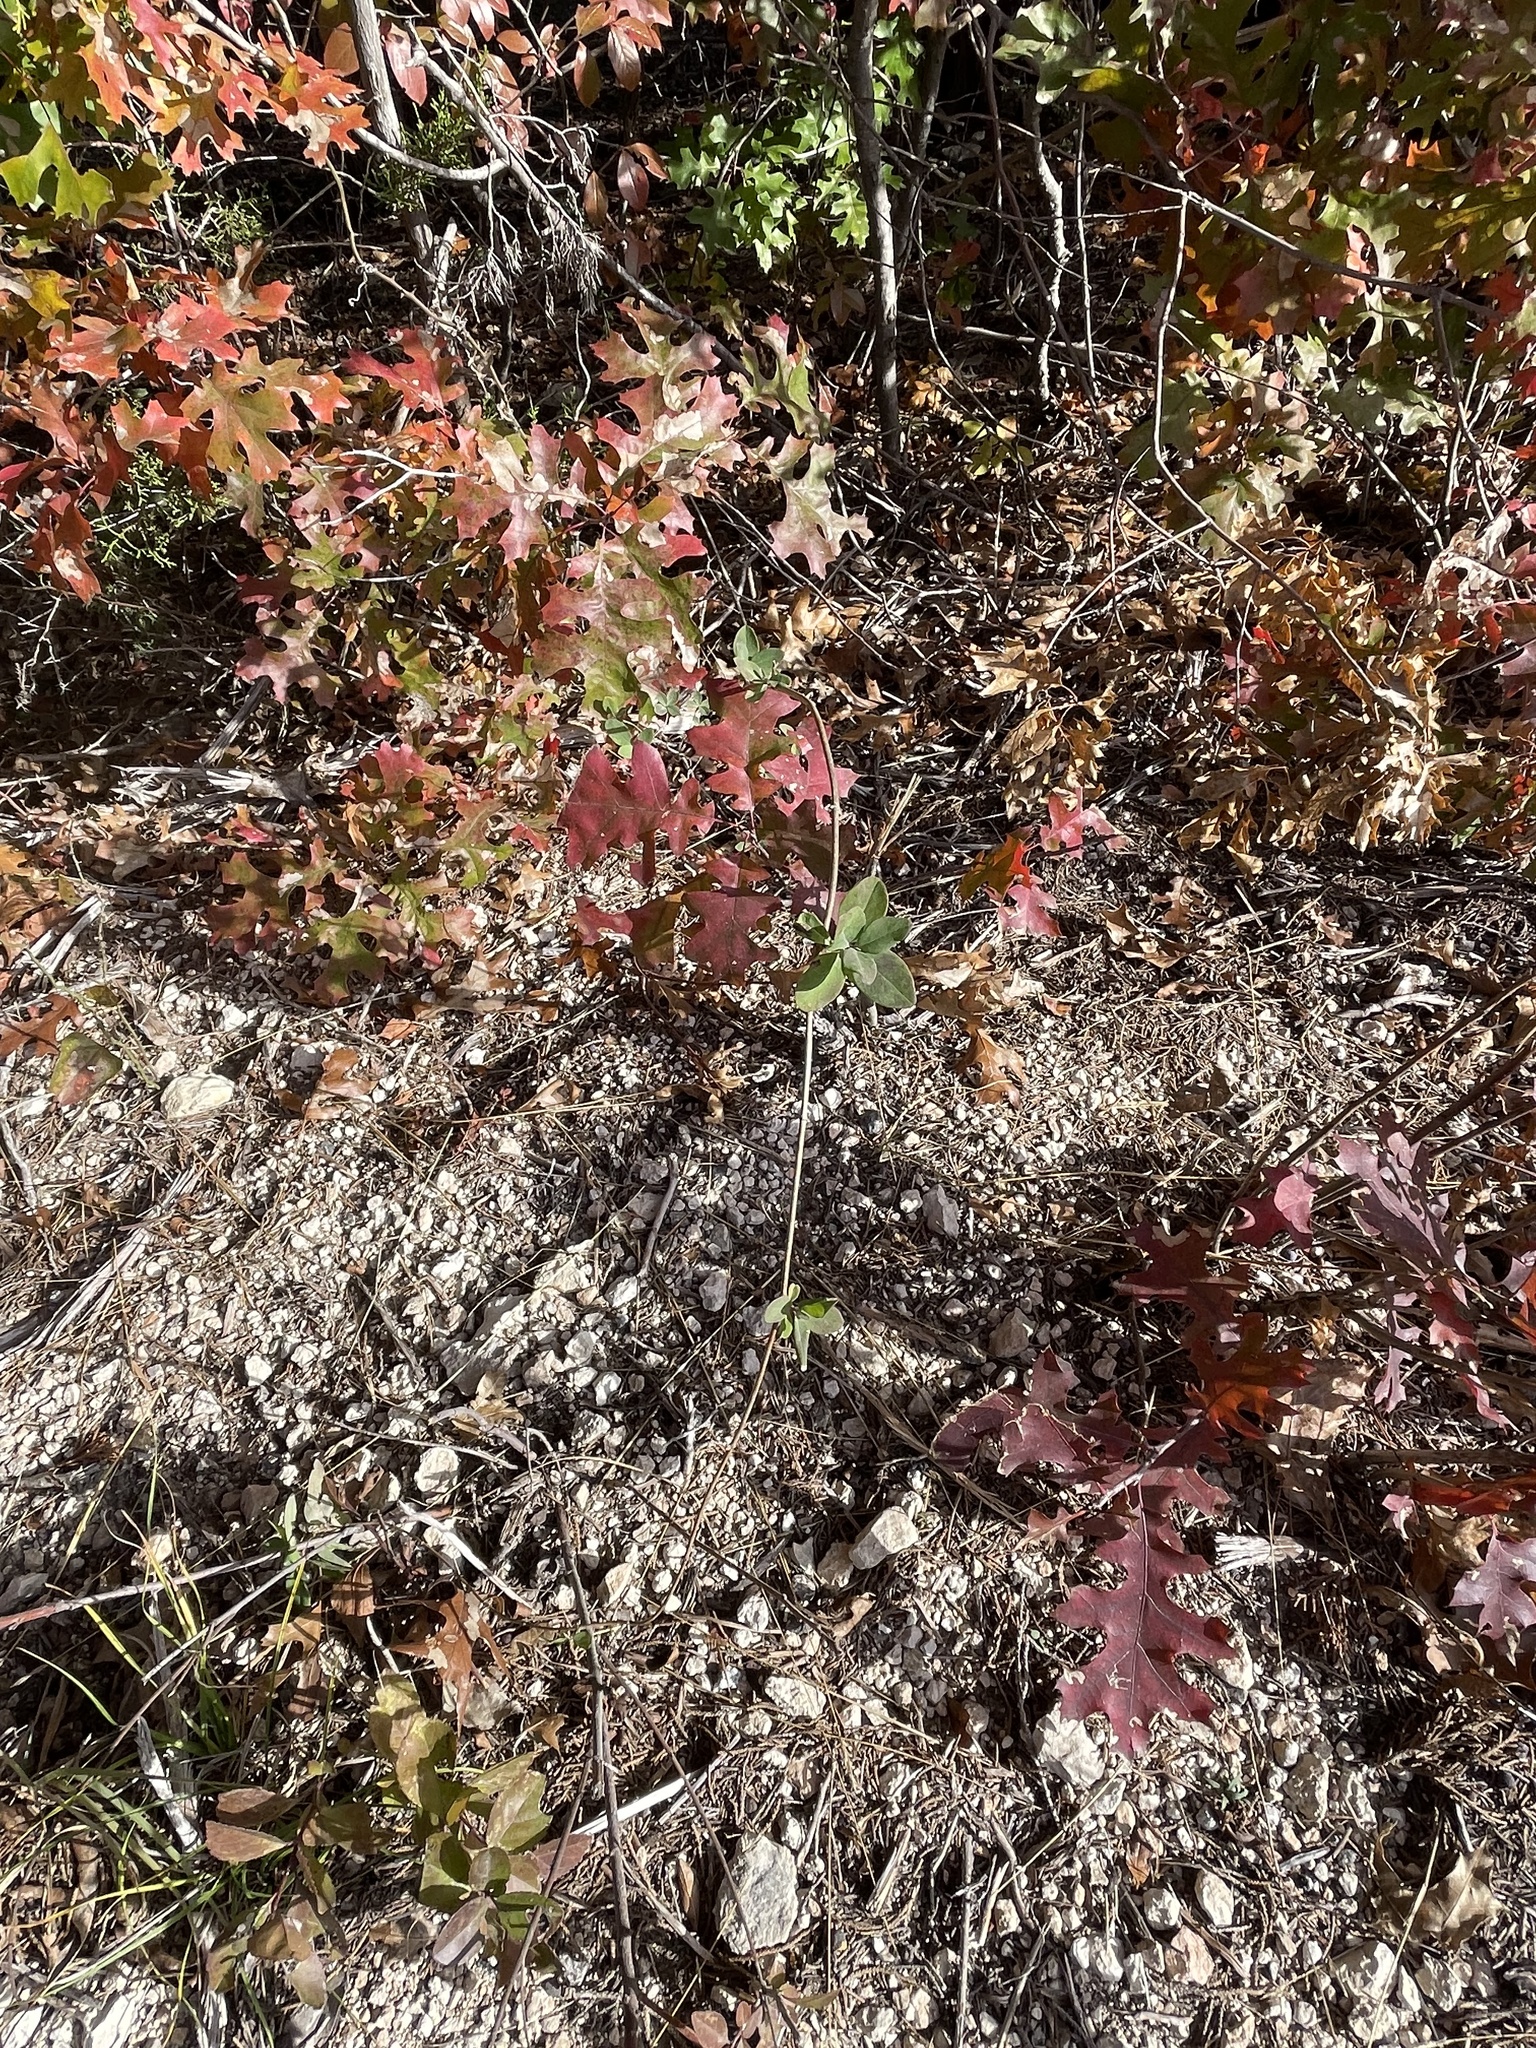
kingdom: Plantae
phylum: Tracheophyta
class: Magnoliopsida
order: Dipsacales
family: Caprifoliaceae
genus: Lonicera
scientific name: Lonicera albiflora
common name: White honeysuckle
